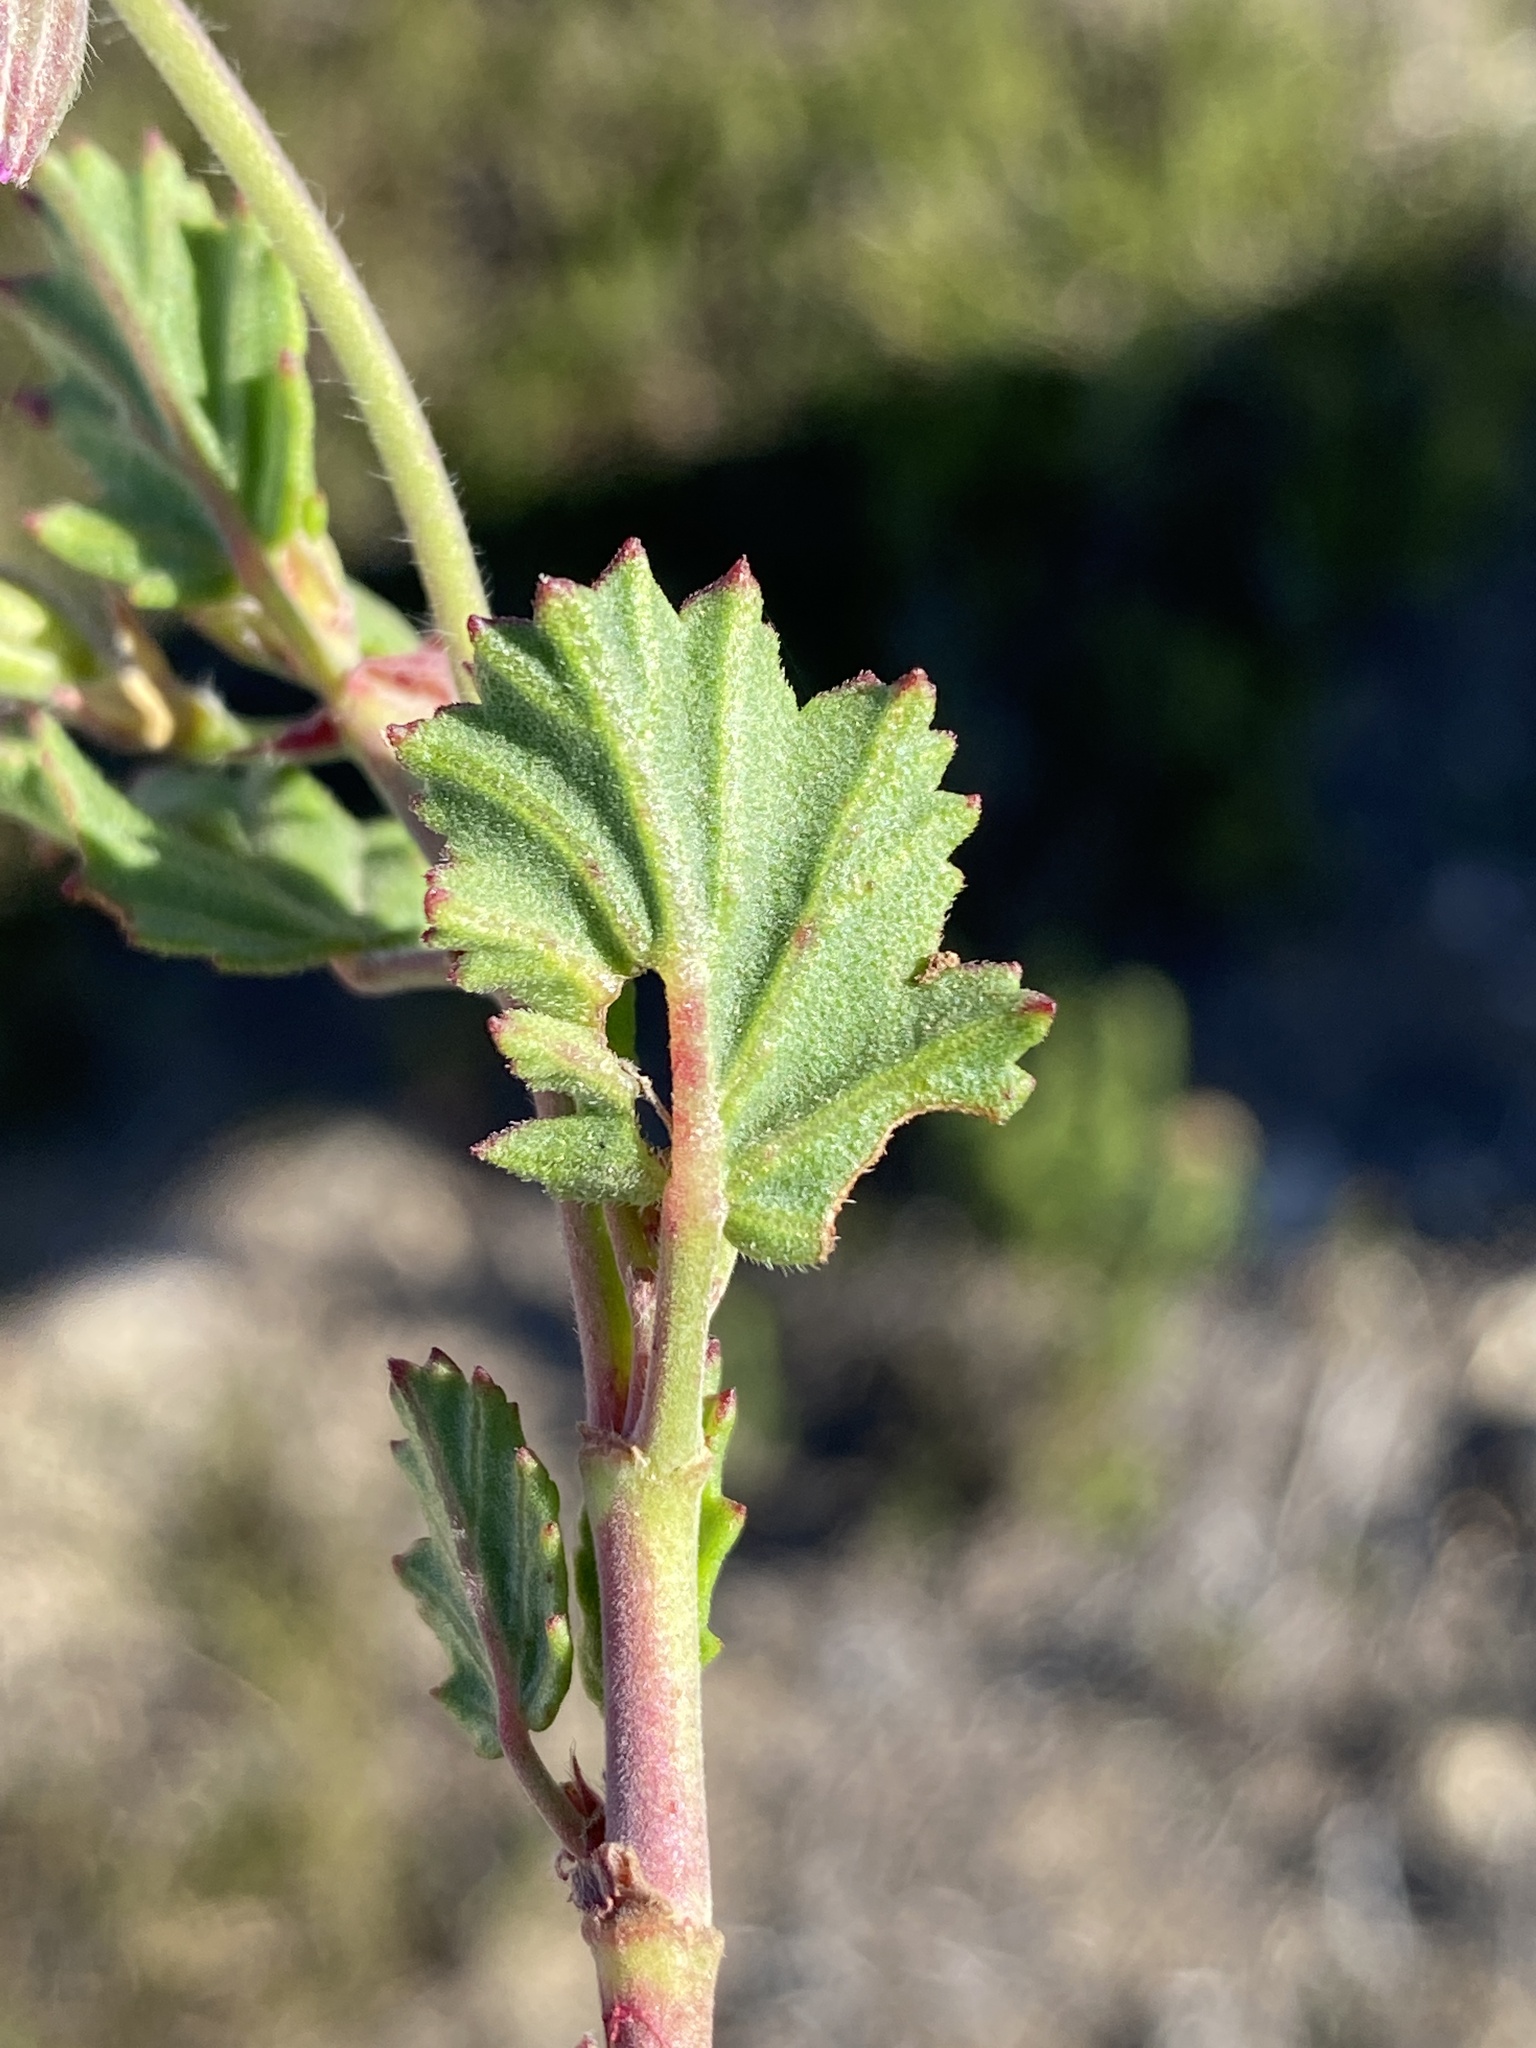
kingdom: Plantae
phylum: Tracheophyta
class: Magnoliopsida
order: Geraniales
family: Geraniaceae
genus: Pelargonium
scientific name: Pelargonium betulinum
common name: Birch-leaf pelargonium
